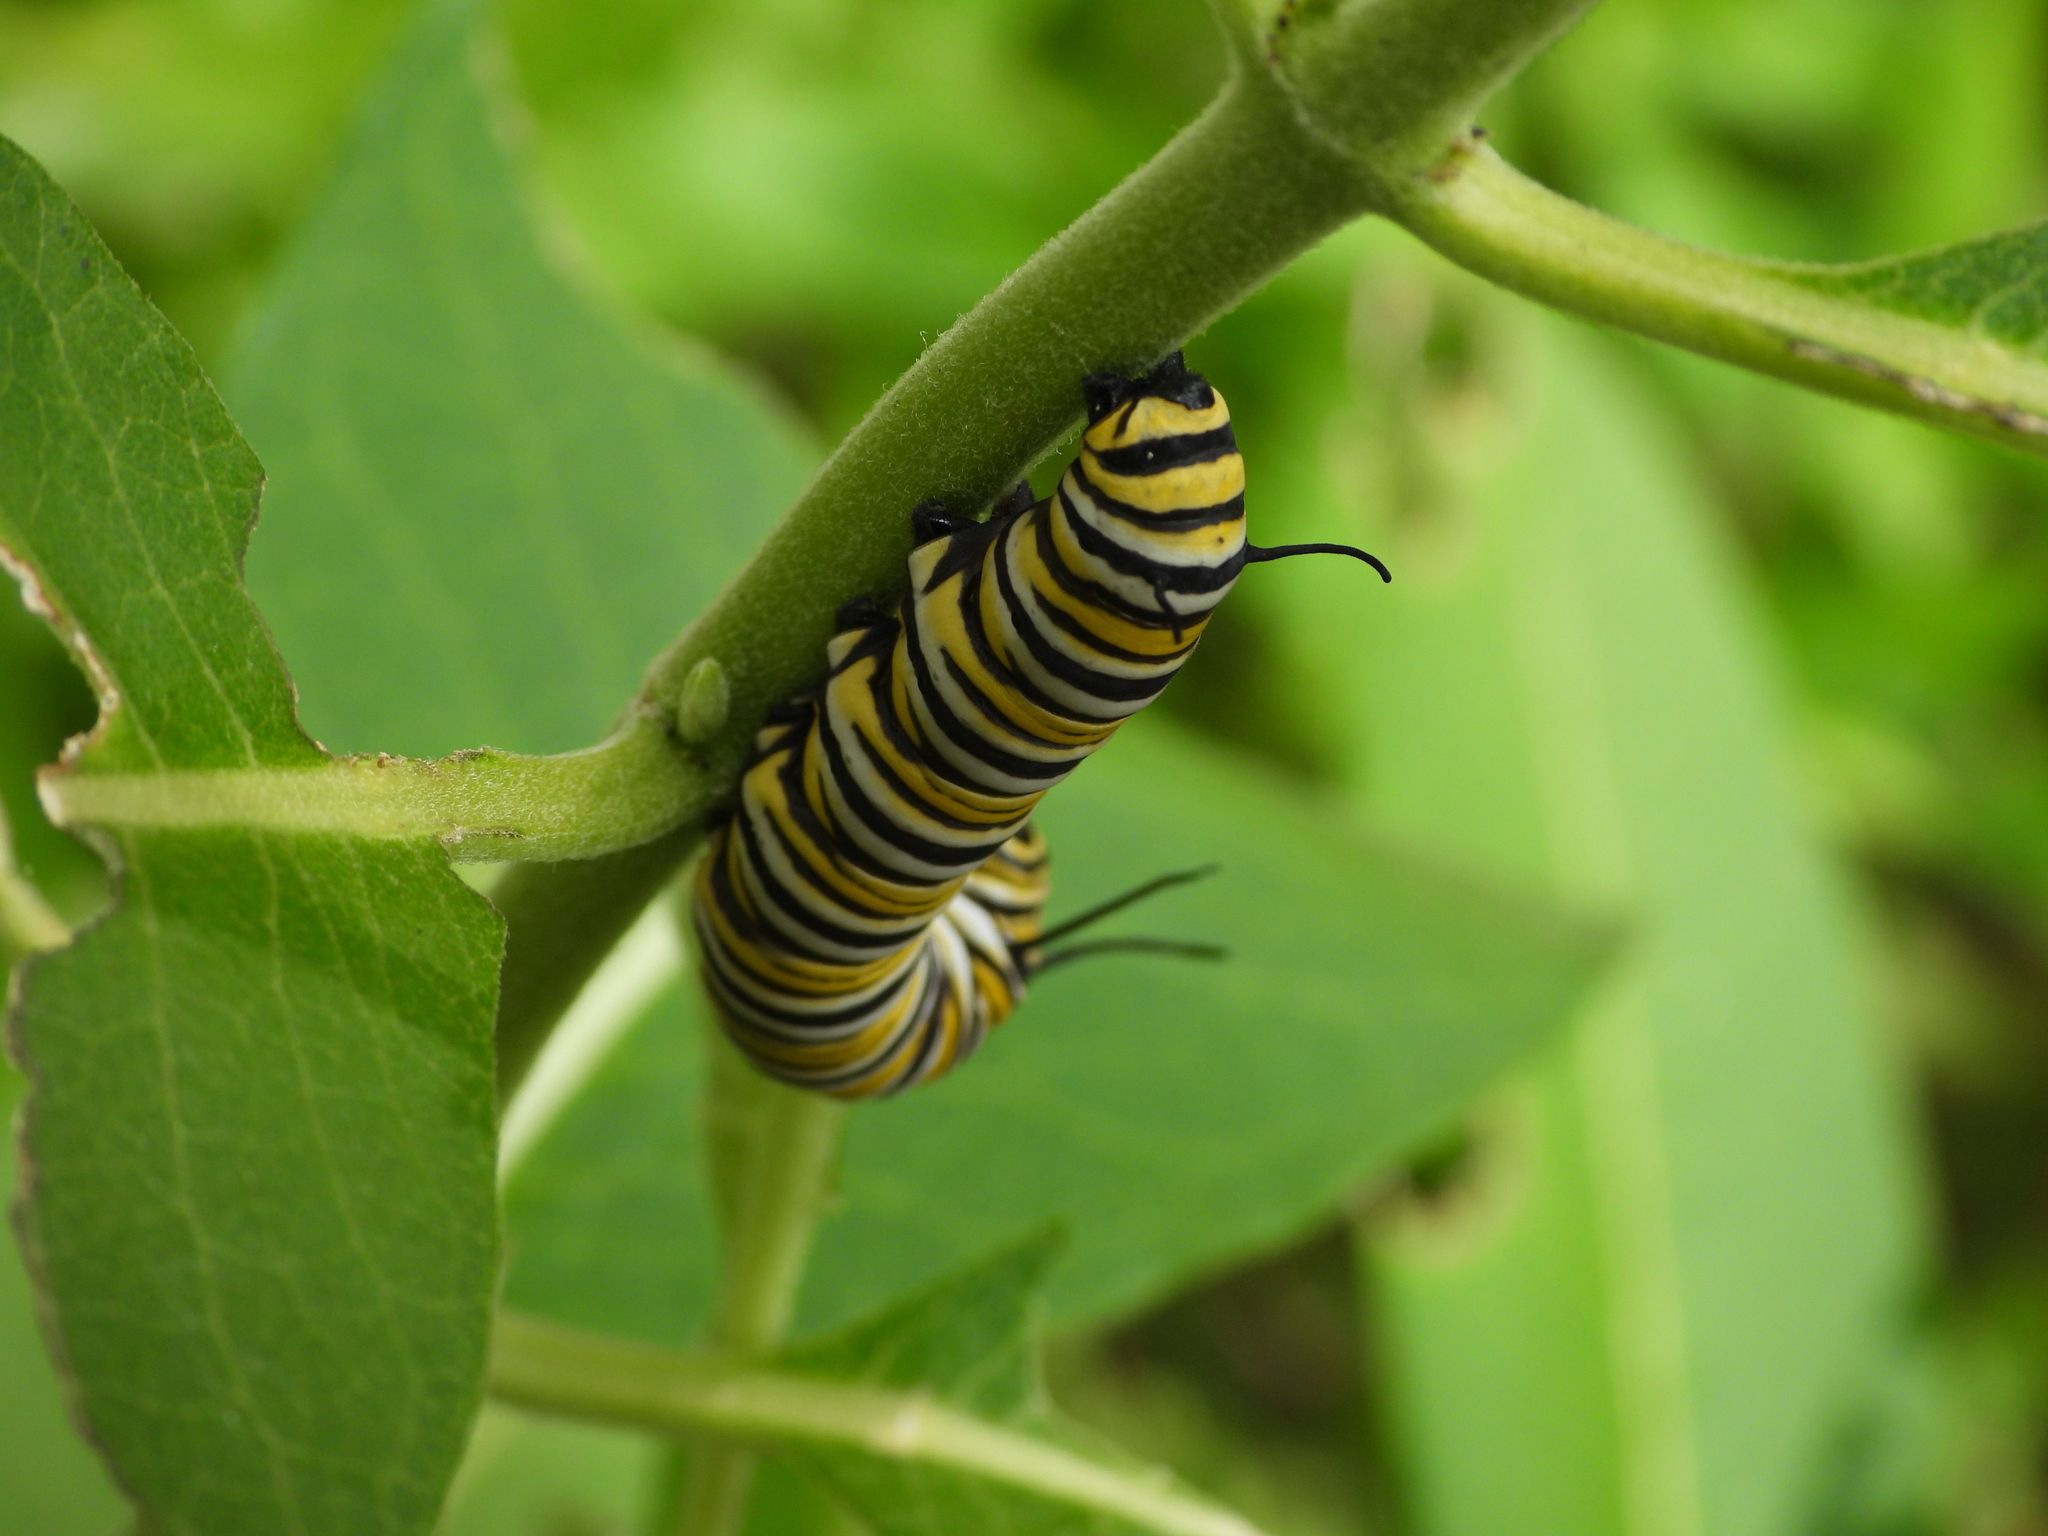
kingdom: Animalia
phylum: Arthropoda
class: Insecta
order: Lepidoptera
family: Nymphalidae
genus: Danaus
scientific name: Danaus plexippus
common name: Monarch
